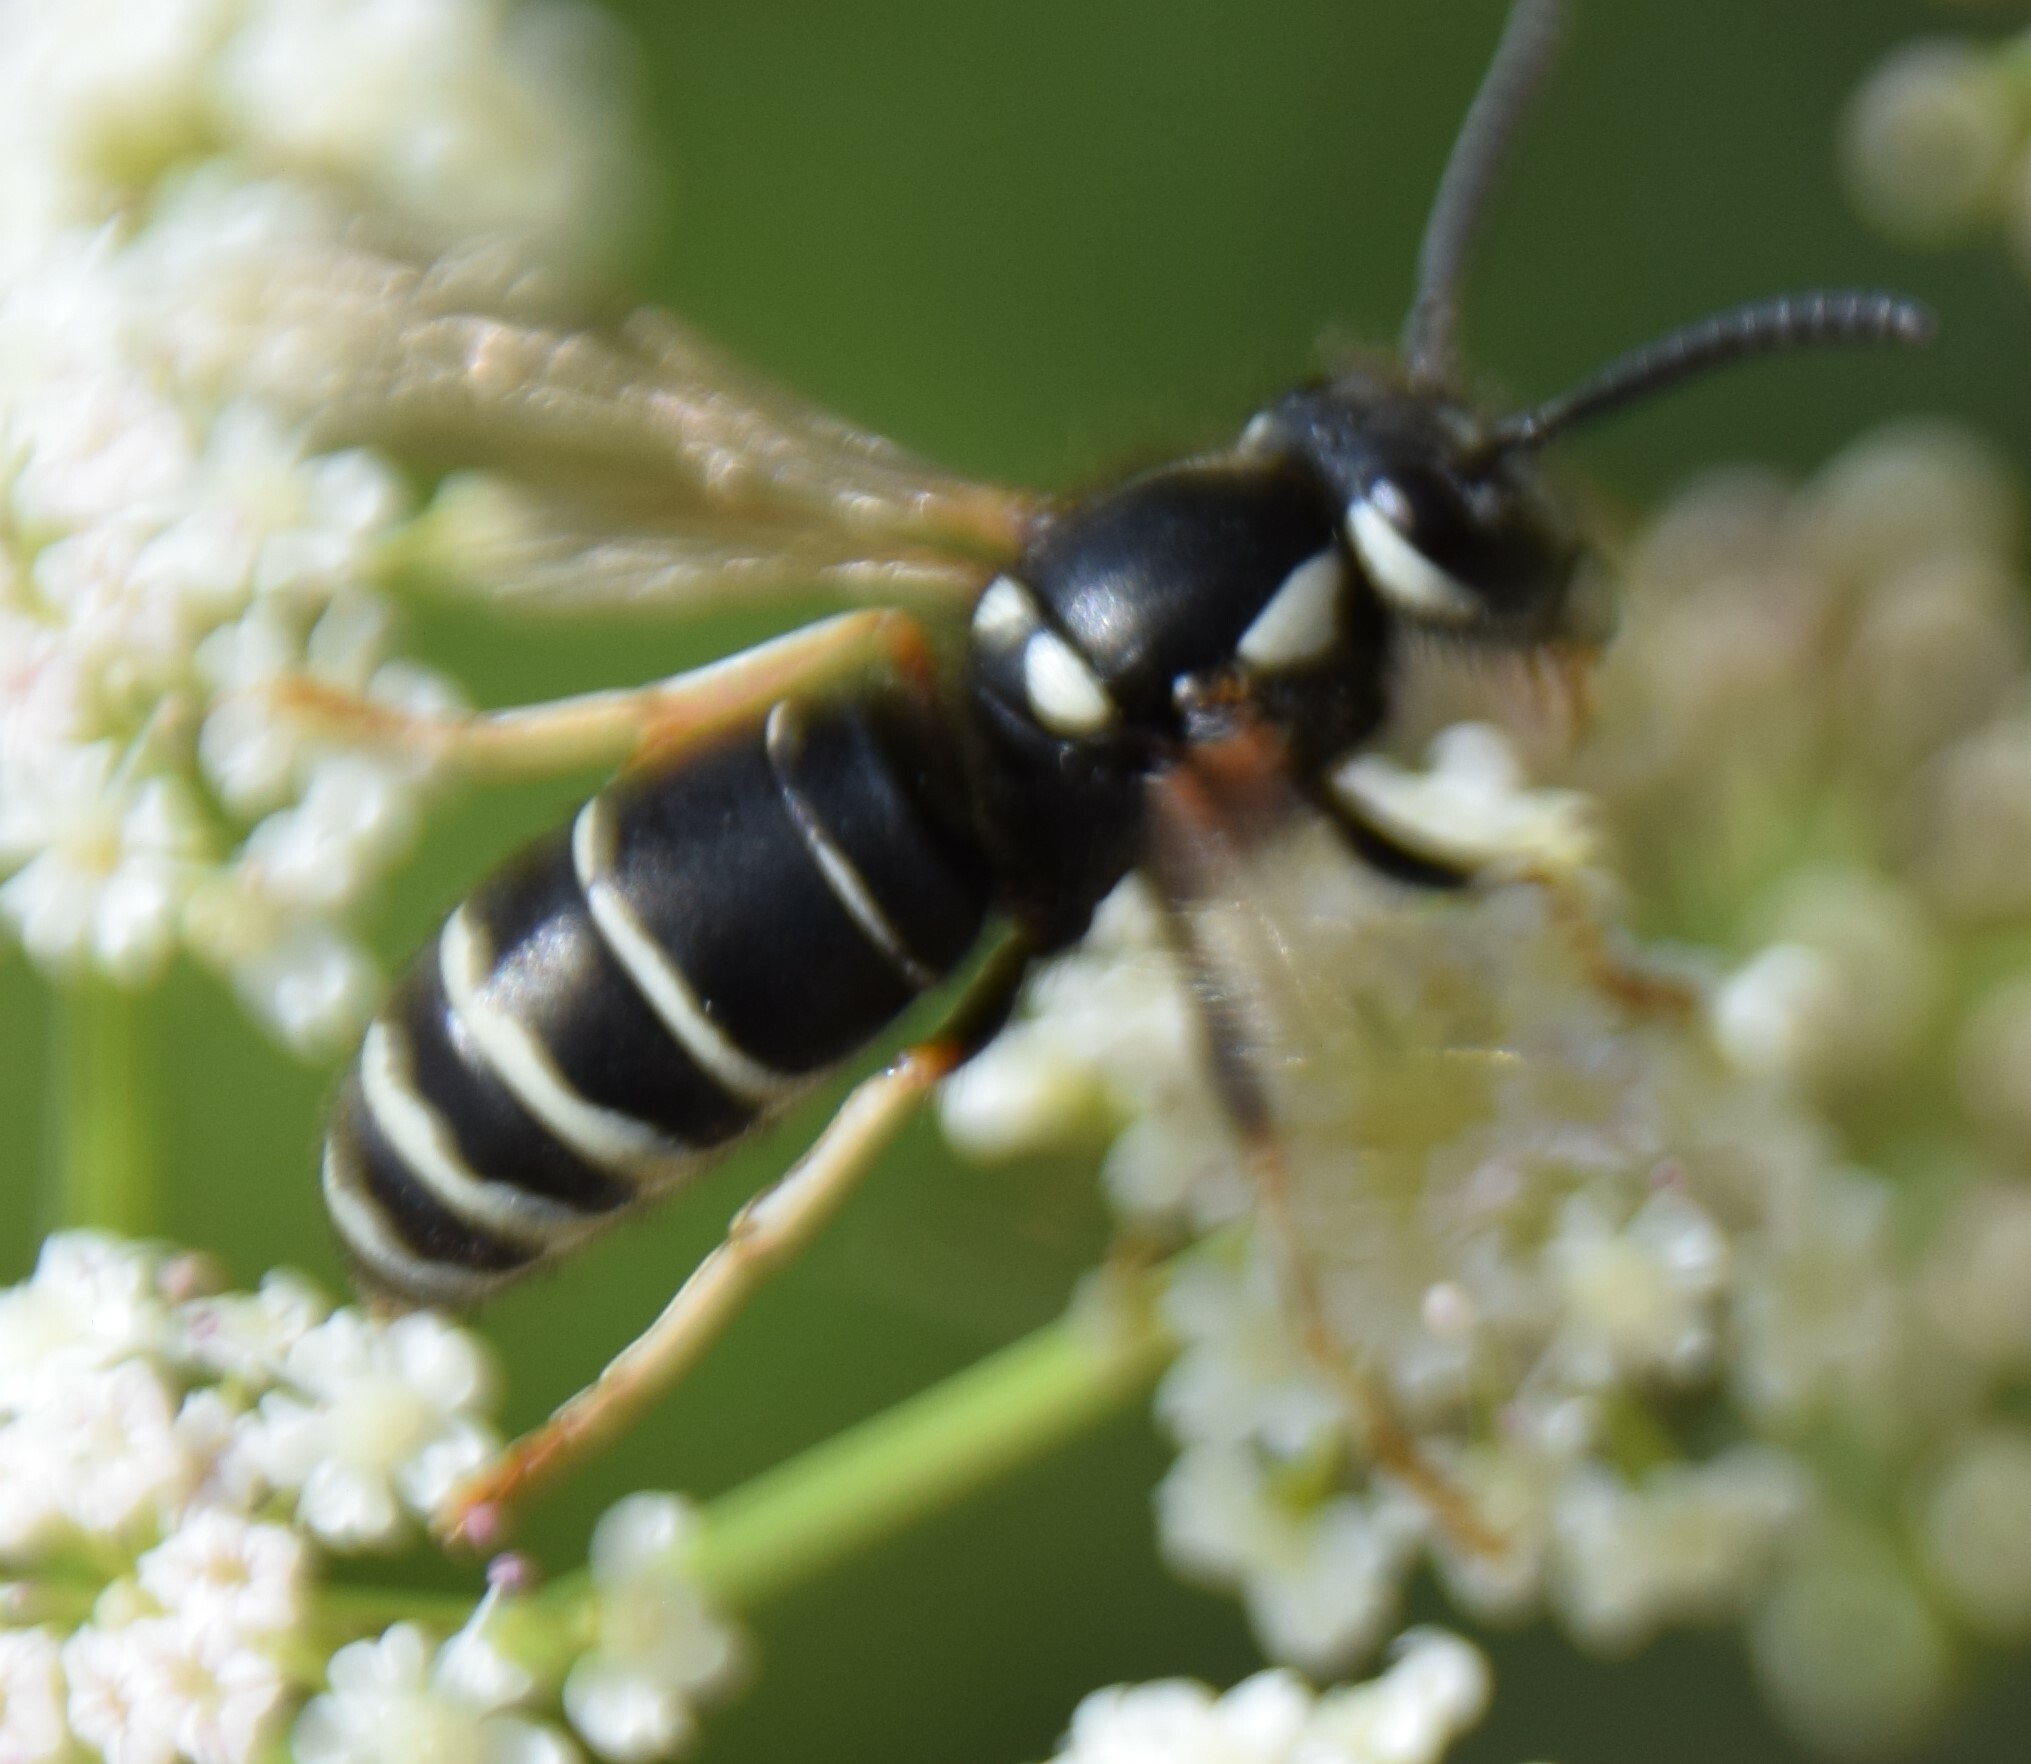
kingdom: Animalia
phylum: Arthropoda
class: Insecta
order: Hymenoptera
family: Vespidae
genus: Vespula
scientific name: Vespula consobrina
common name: Blackjacket
